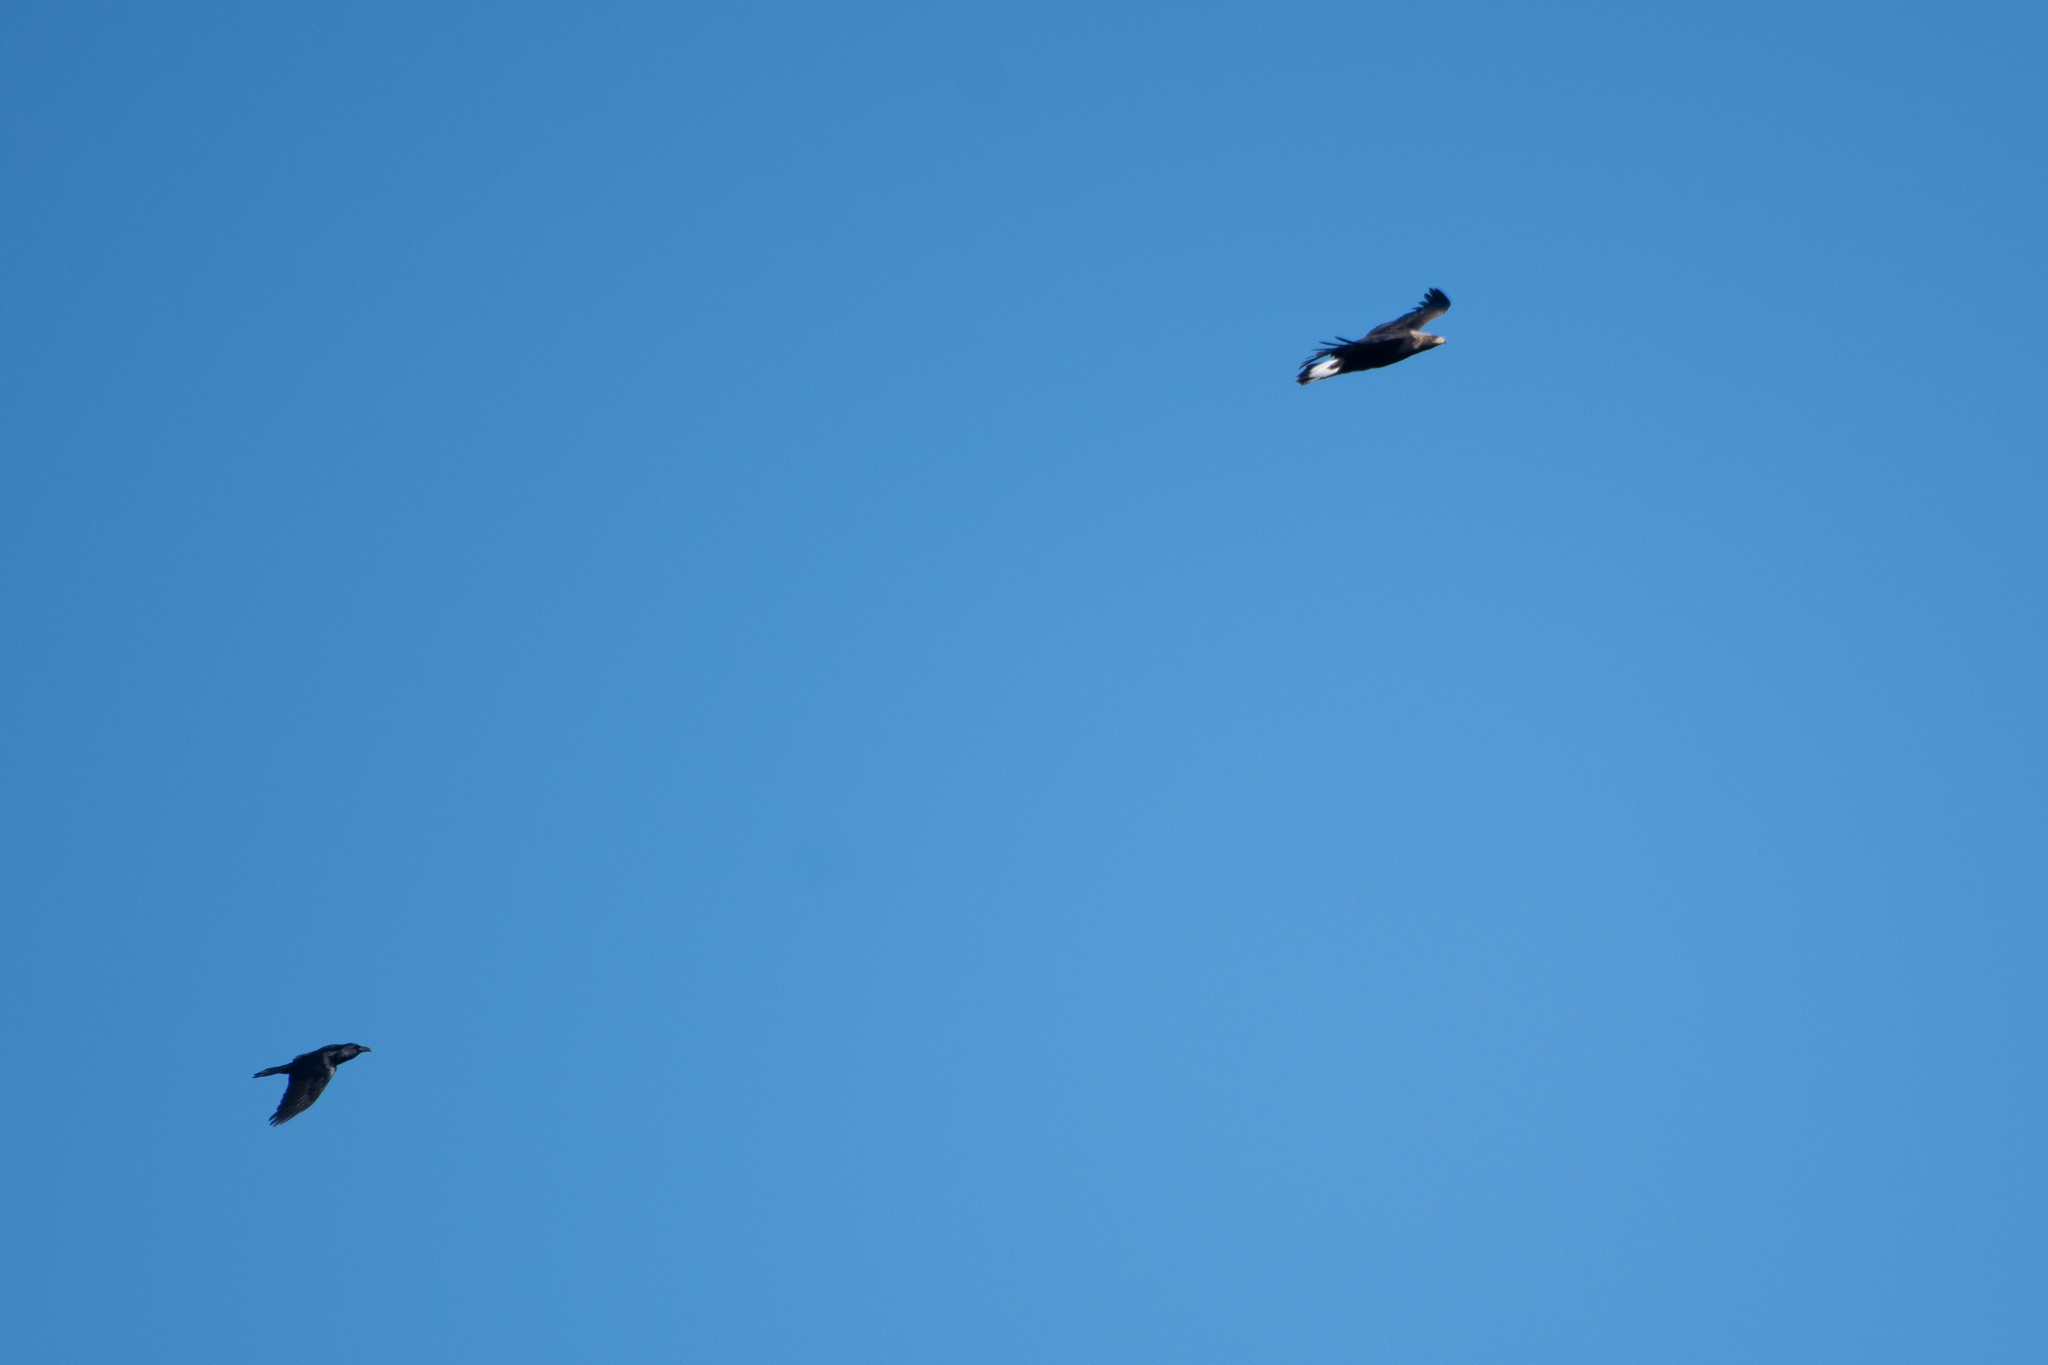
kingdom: Animalia
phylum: Chordata
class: Aves
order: Accipitriformes
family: Accipitridae
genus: Aquila
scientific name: Aquila chrysaetos
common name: Golden eagle
